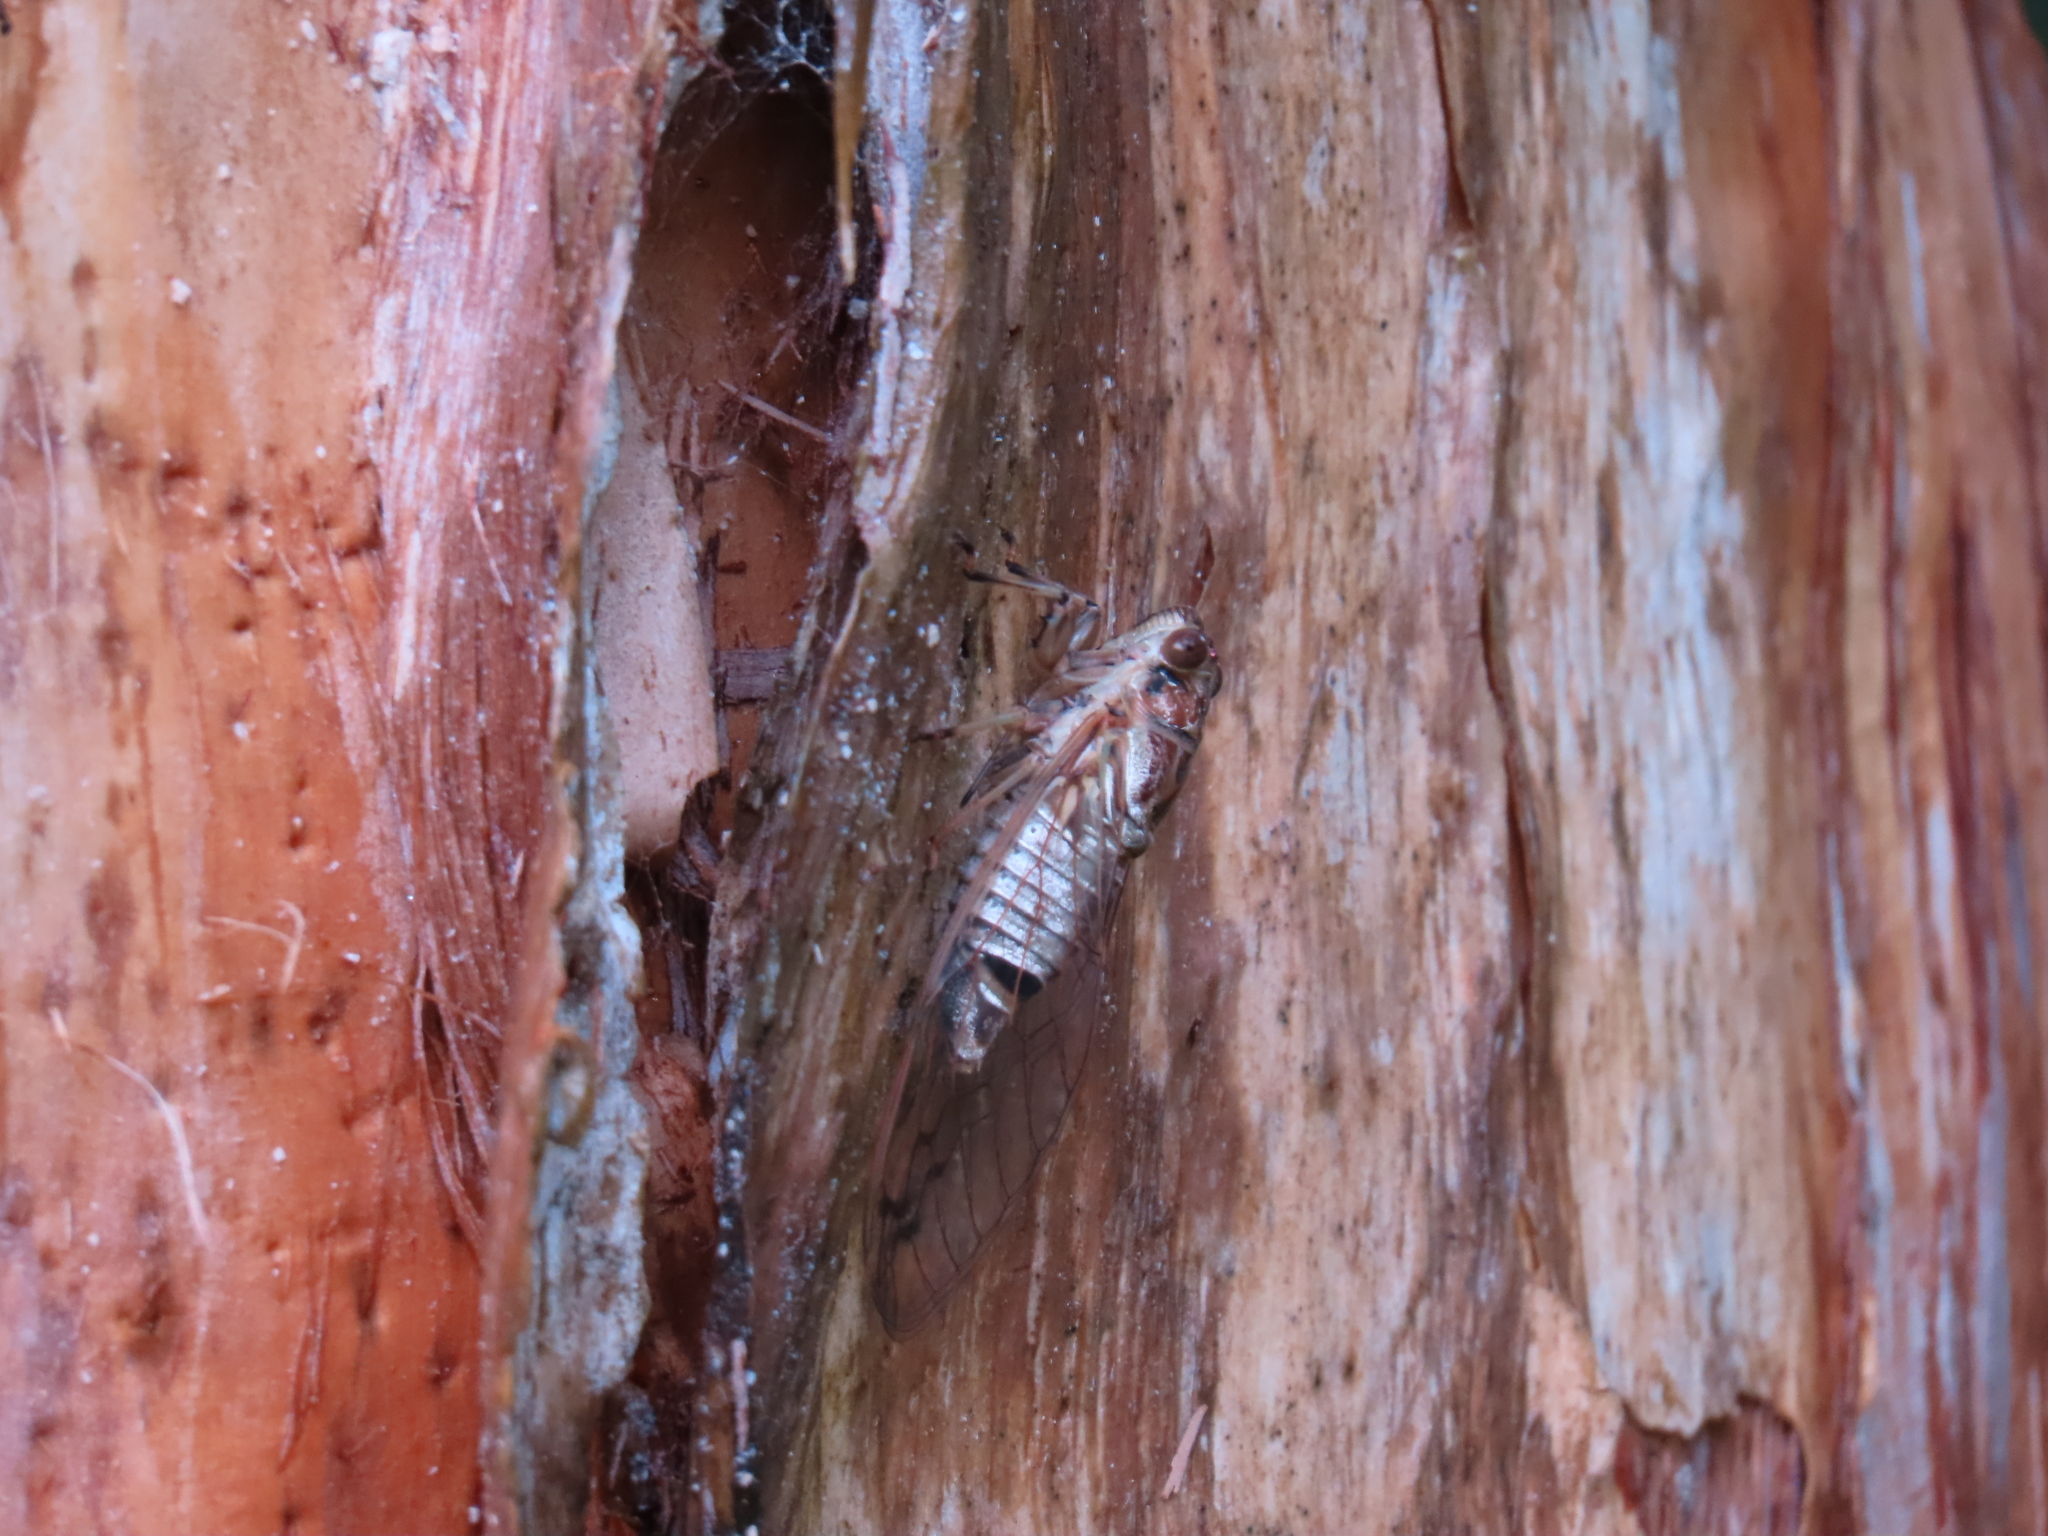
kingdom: Animalia
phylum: Arthropoda
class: Insecta
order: Hemiptera
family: Cicadidae
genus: Tamasa
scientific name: Tamasa burgessi
